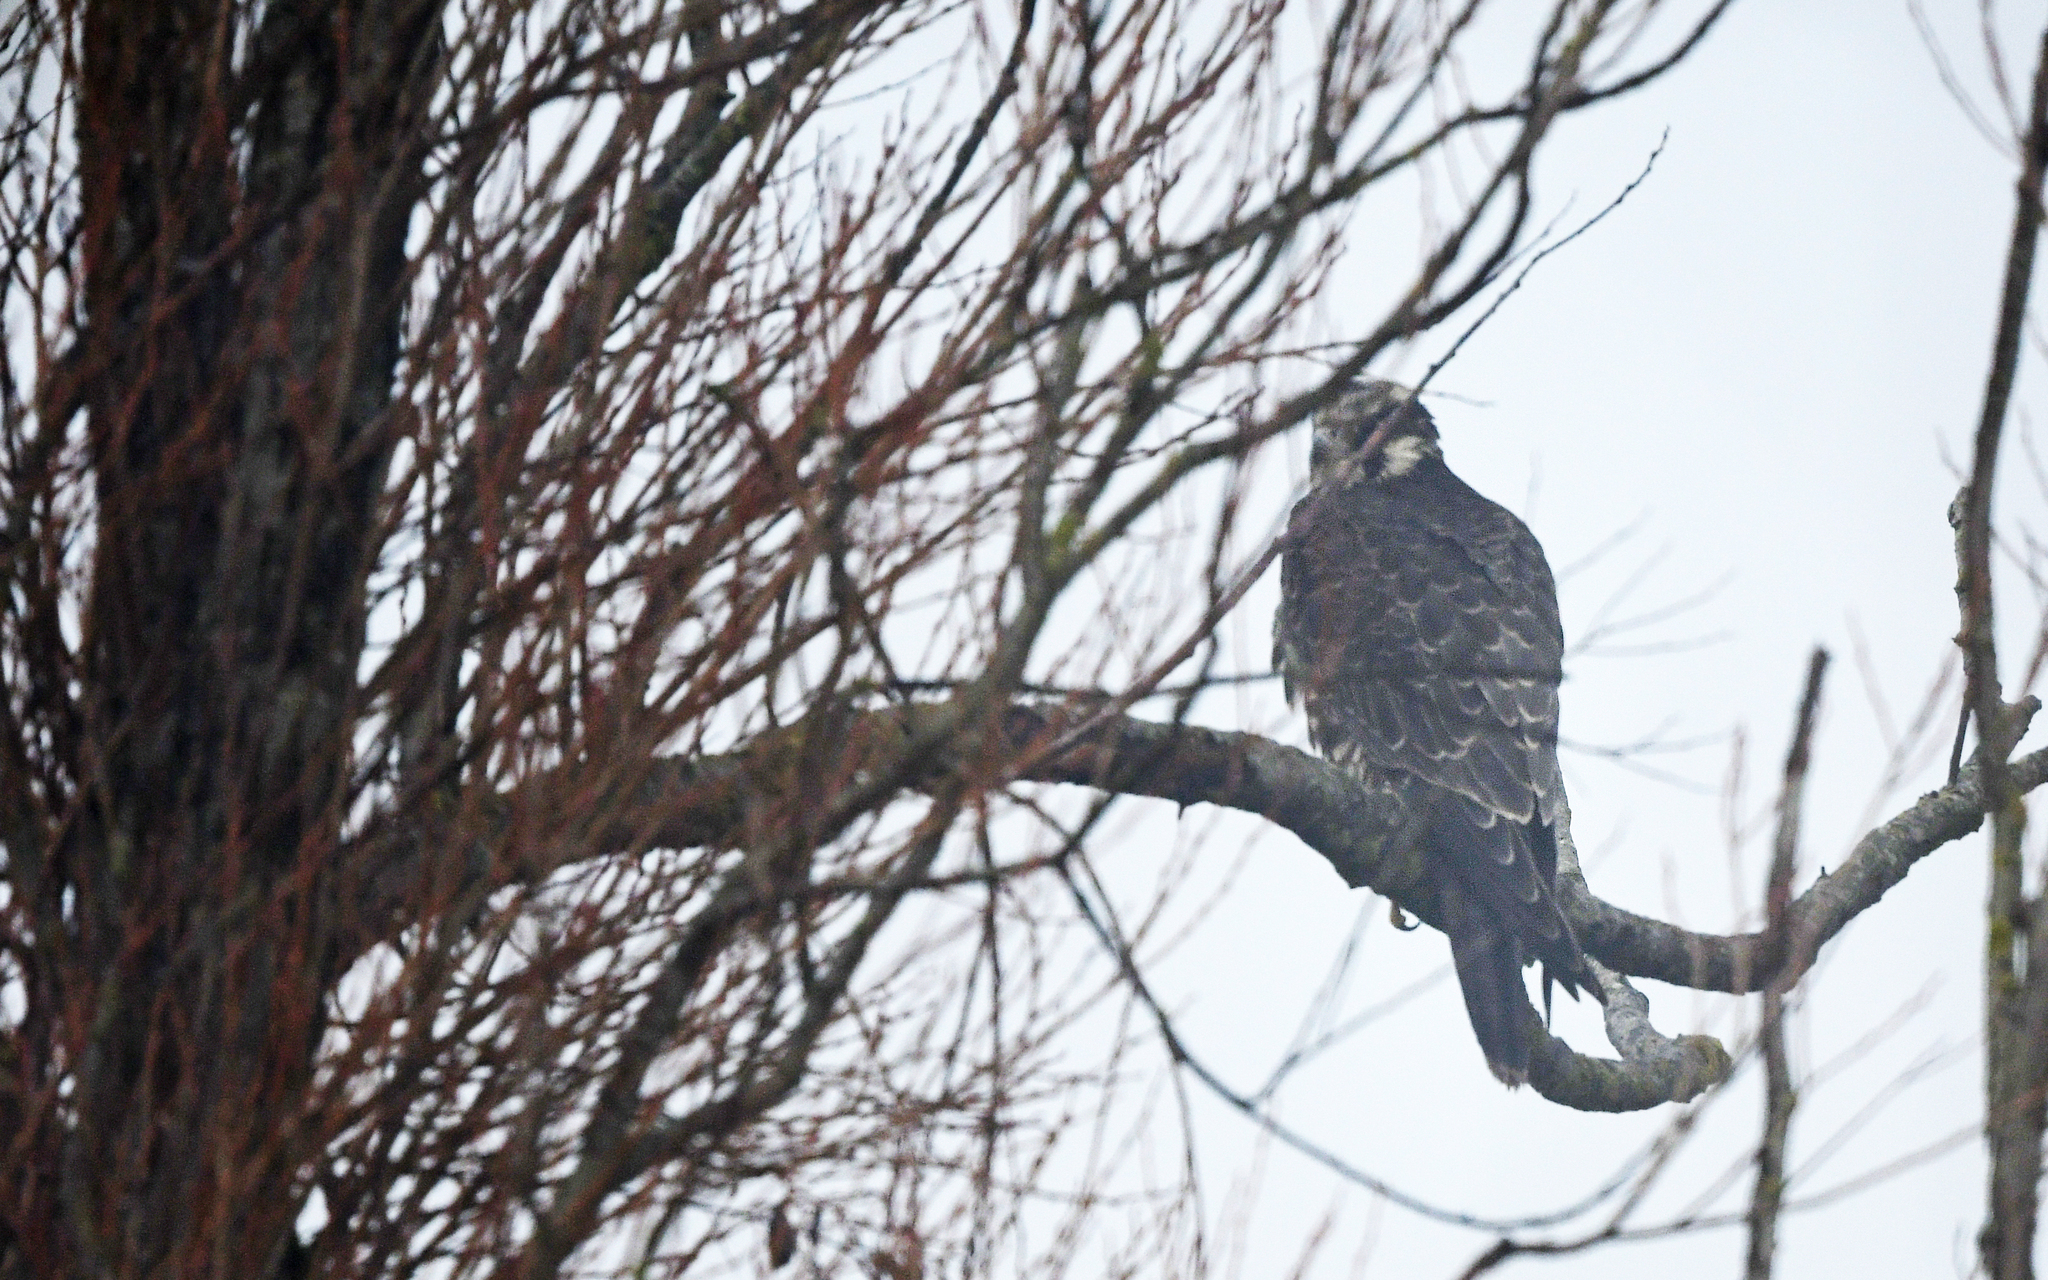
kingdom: Animalia
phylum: Chordata
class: Aves
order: Falconiformes
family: Falconidae
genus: Falco
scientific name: Falco peregrinus
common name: Peregrine falcon
